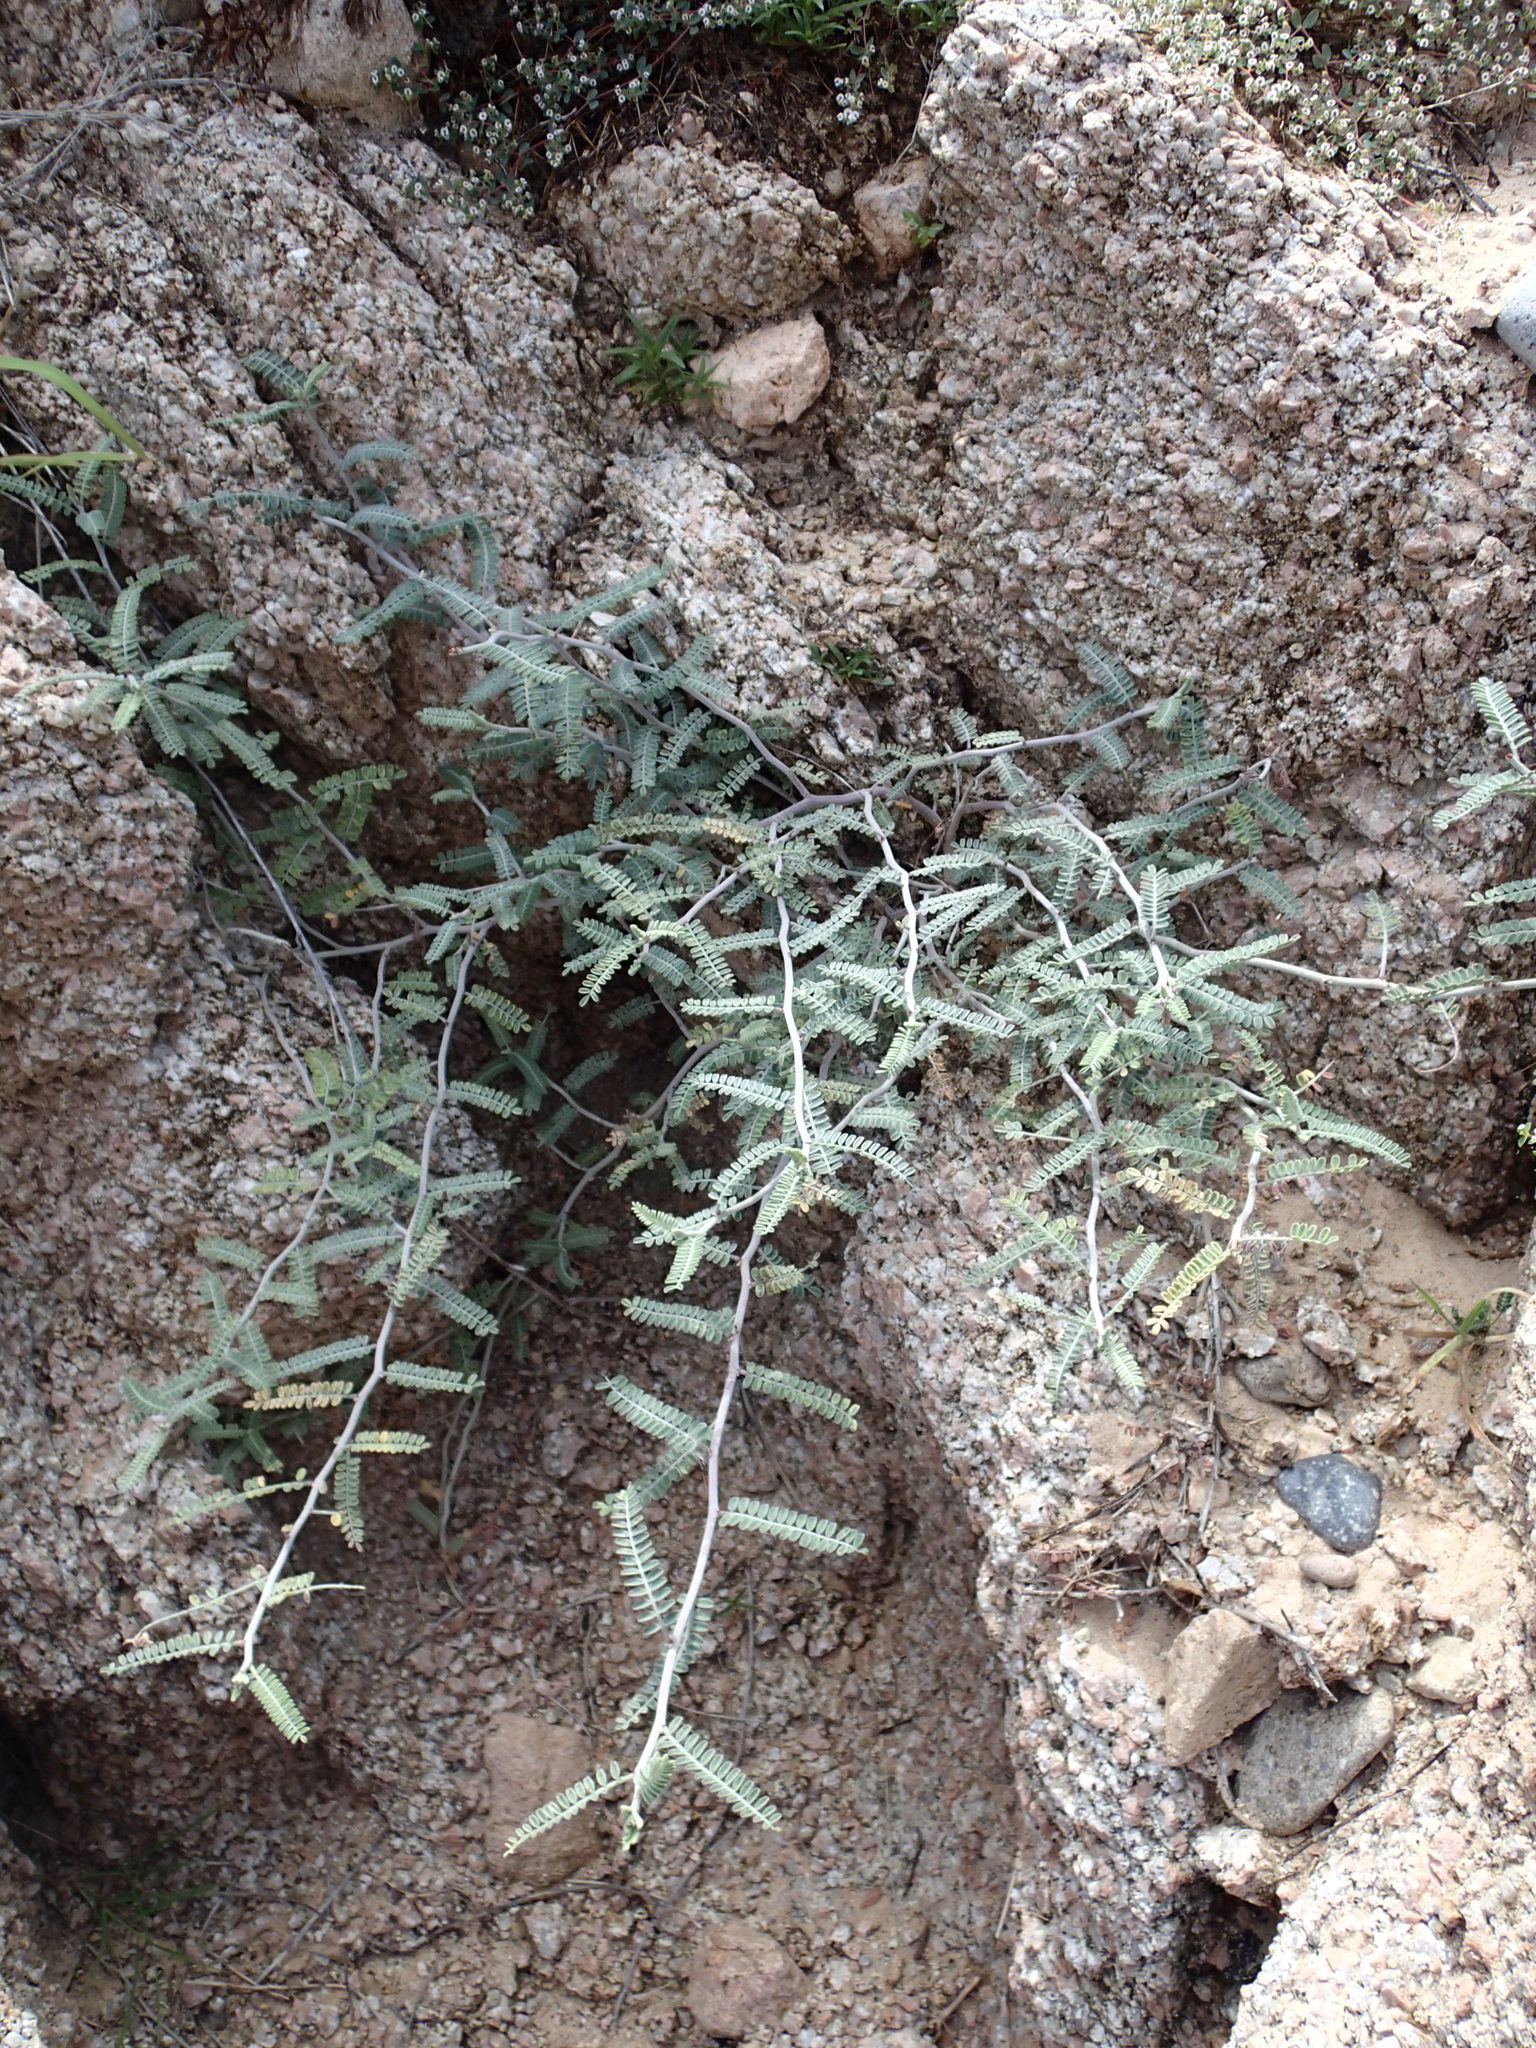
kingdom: Plantae
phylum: Tracheophyta
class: Magnoliopsida
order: Fabales
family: Fabaceae
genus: Marina
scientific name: Marina maritima
